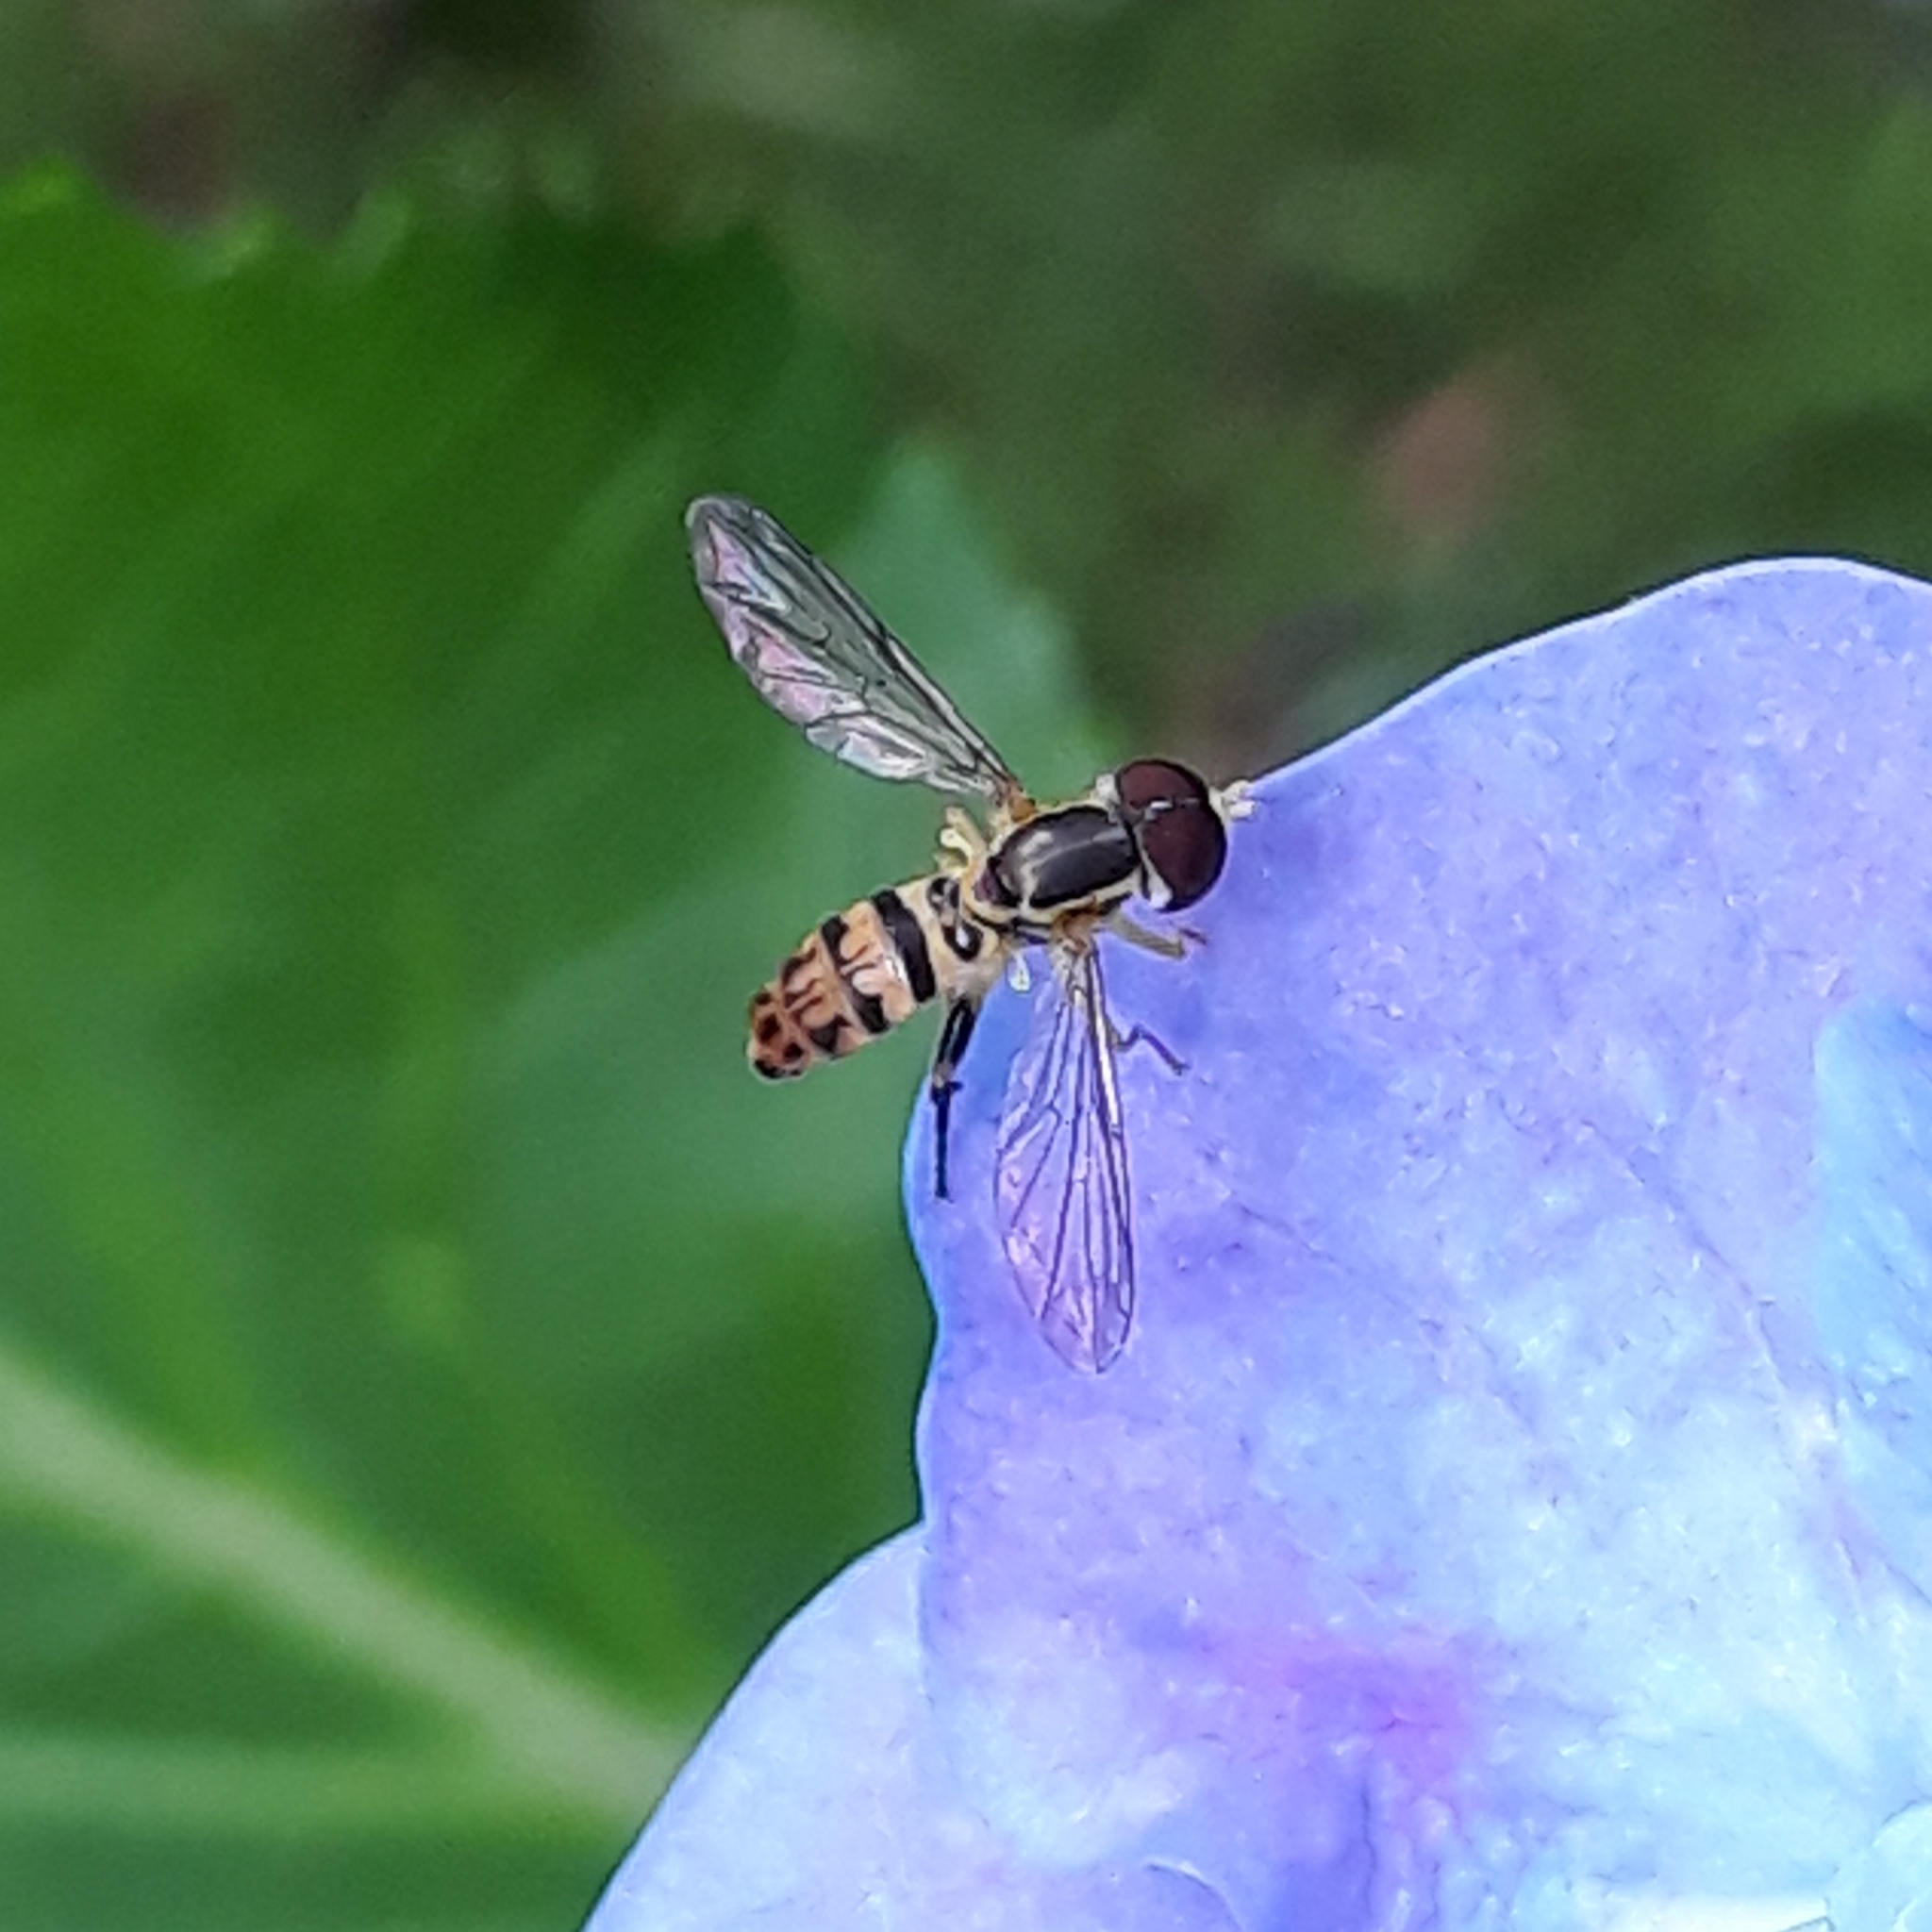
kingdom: Animalia
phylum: Arthropoda
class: Insecta
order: Diptera
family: Syrphidae
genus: Toxomerus
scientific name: Toxomerus geminatus
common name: Eastern calligrapher
